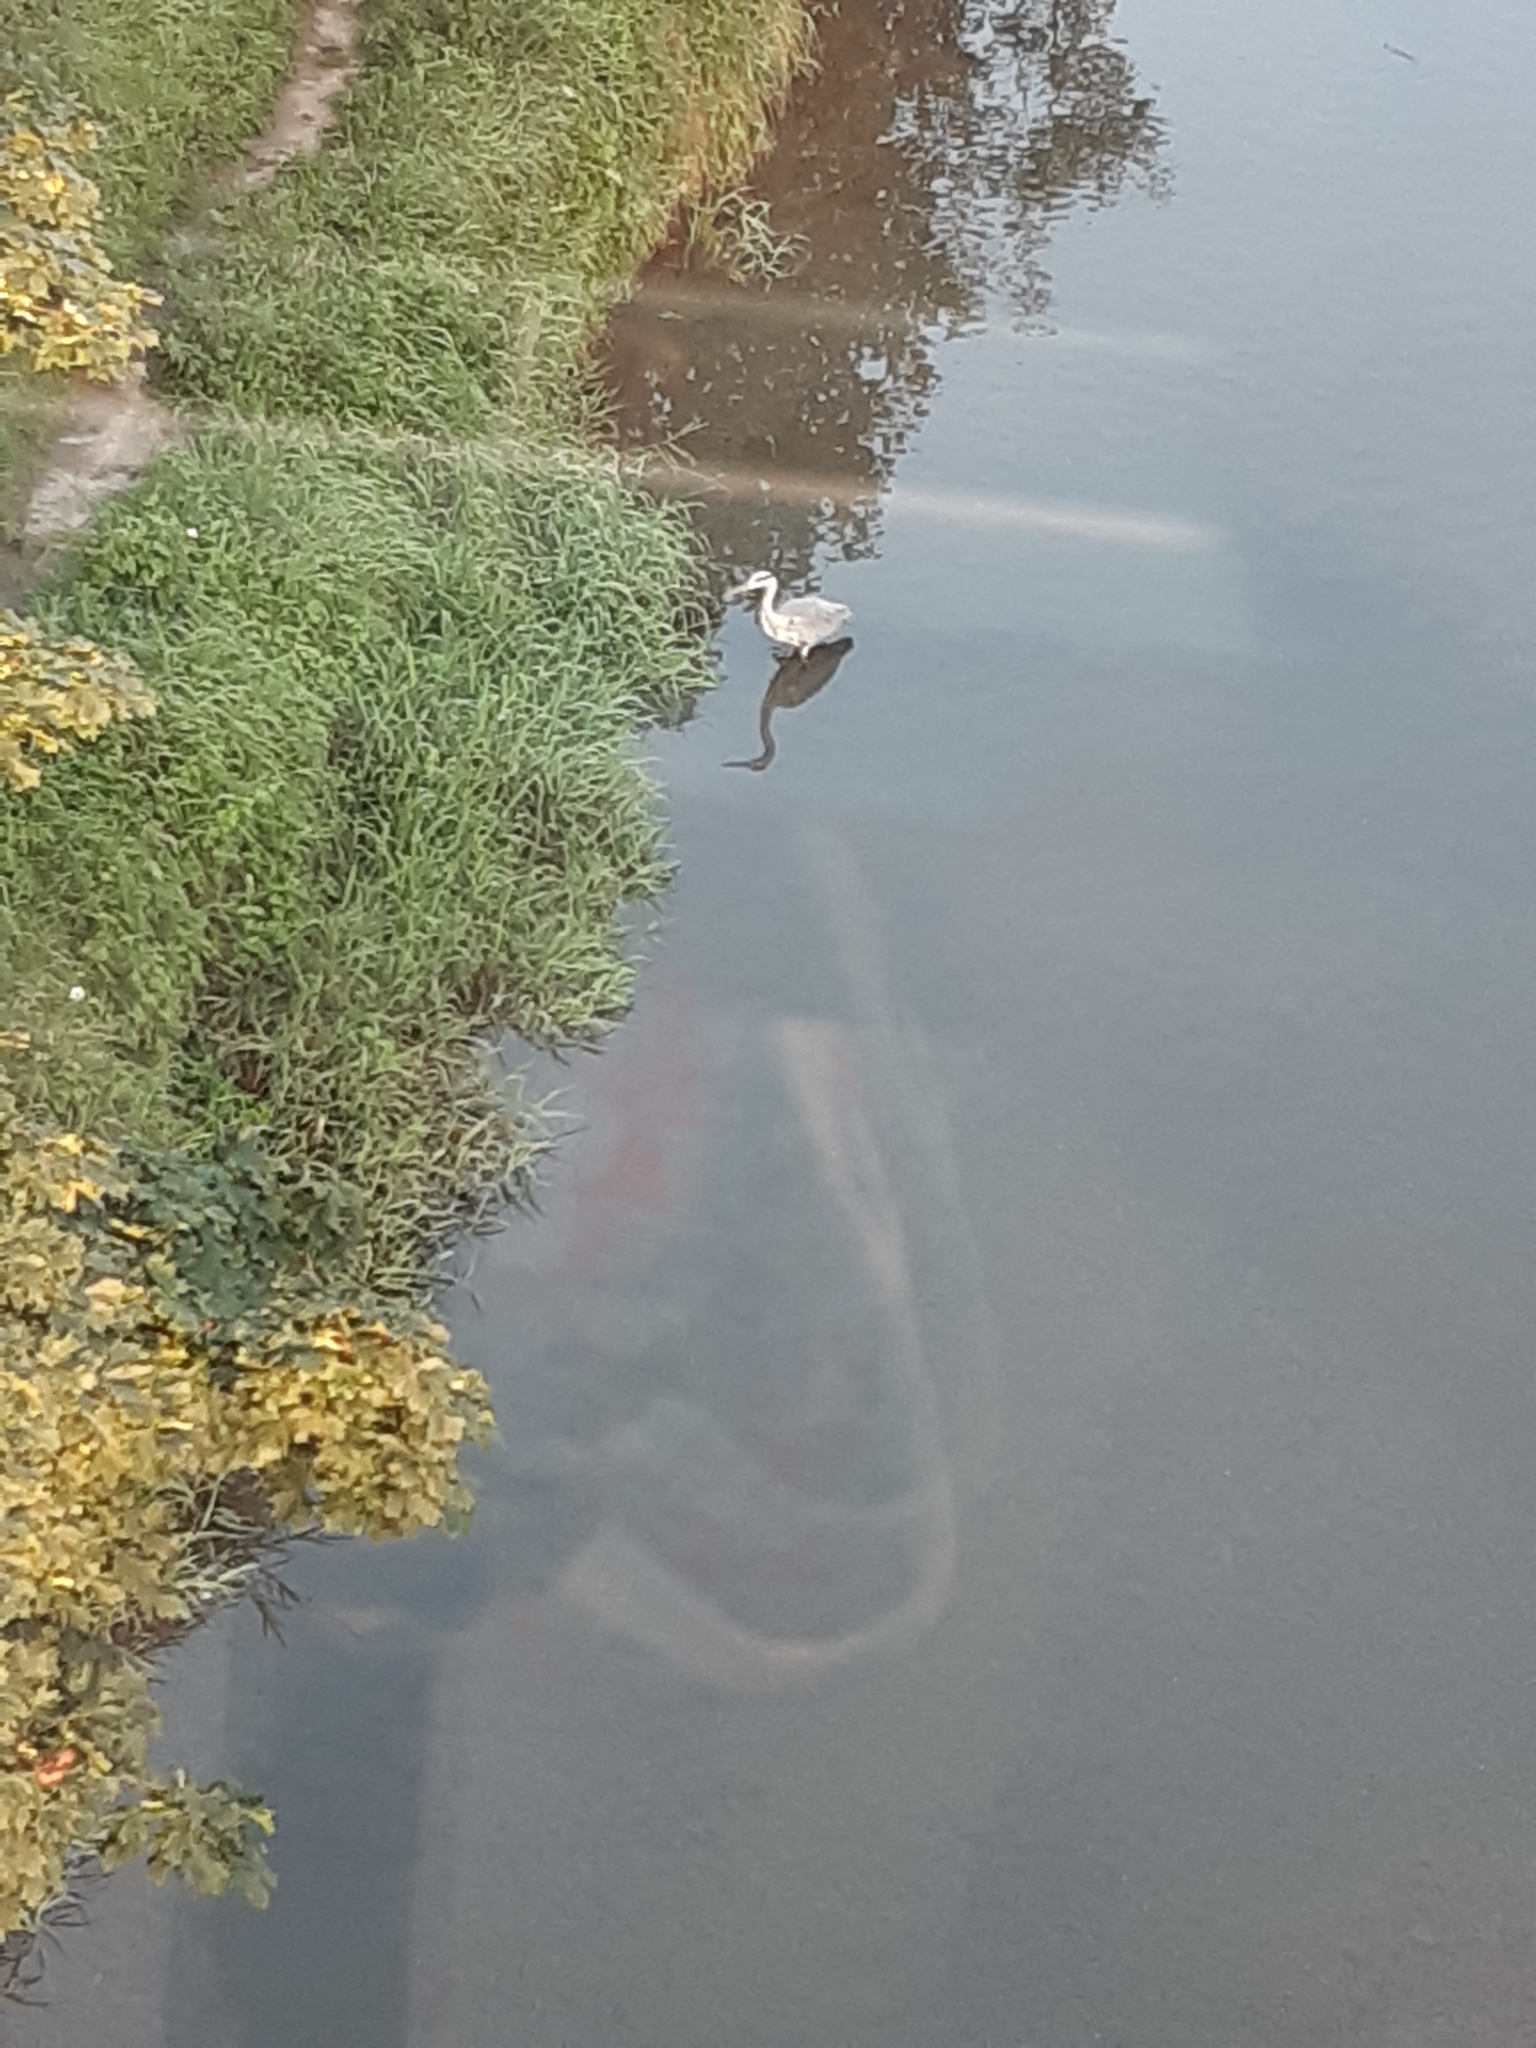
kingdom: Animalia
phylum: Chordata
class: Aves
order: Pelecaniformes
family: Ardeidae
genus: Ardea
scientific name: Ardea cinerea
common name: Grey heron
